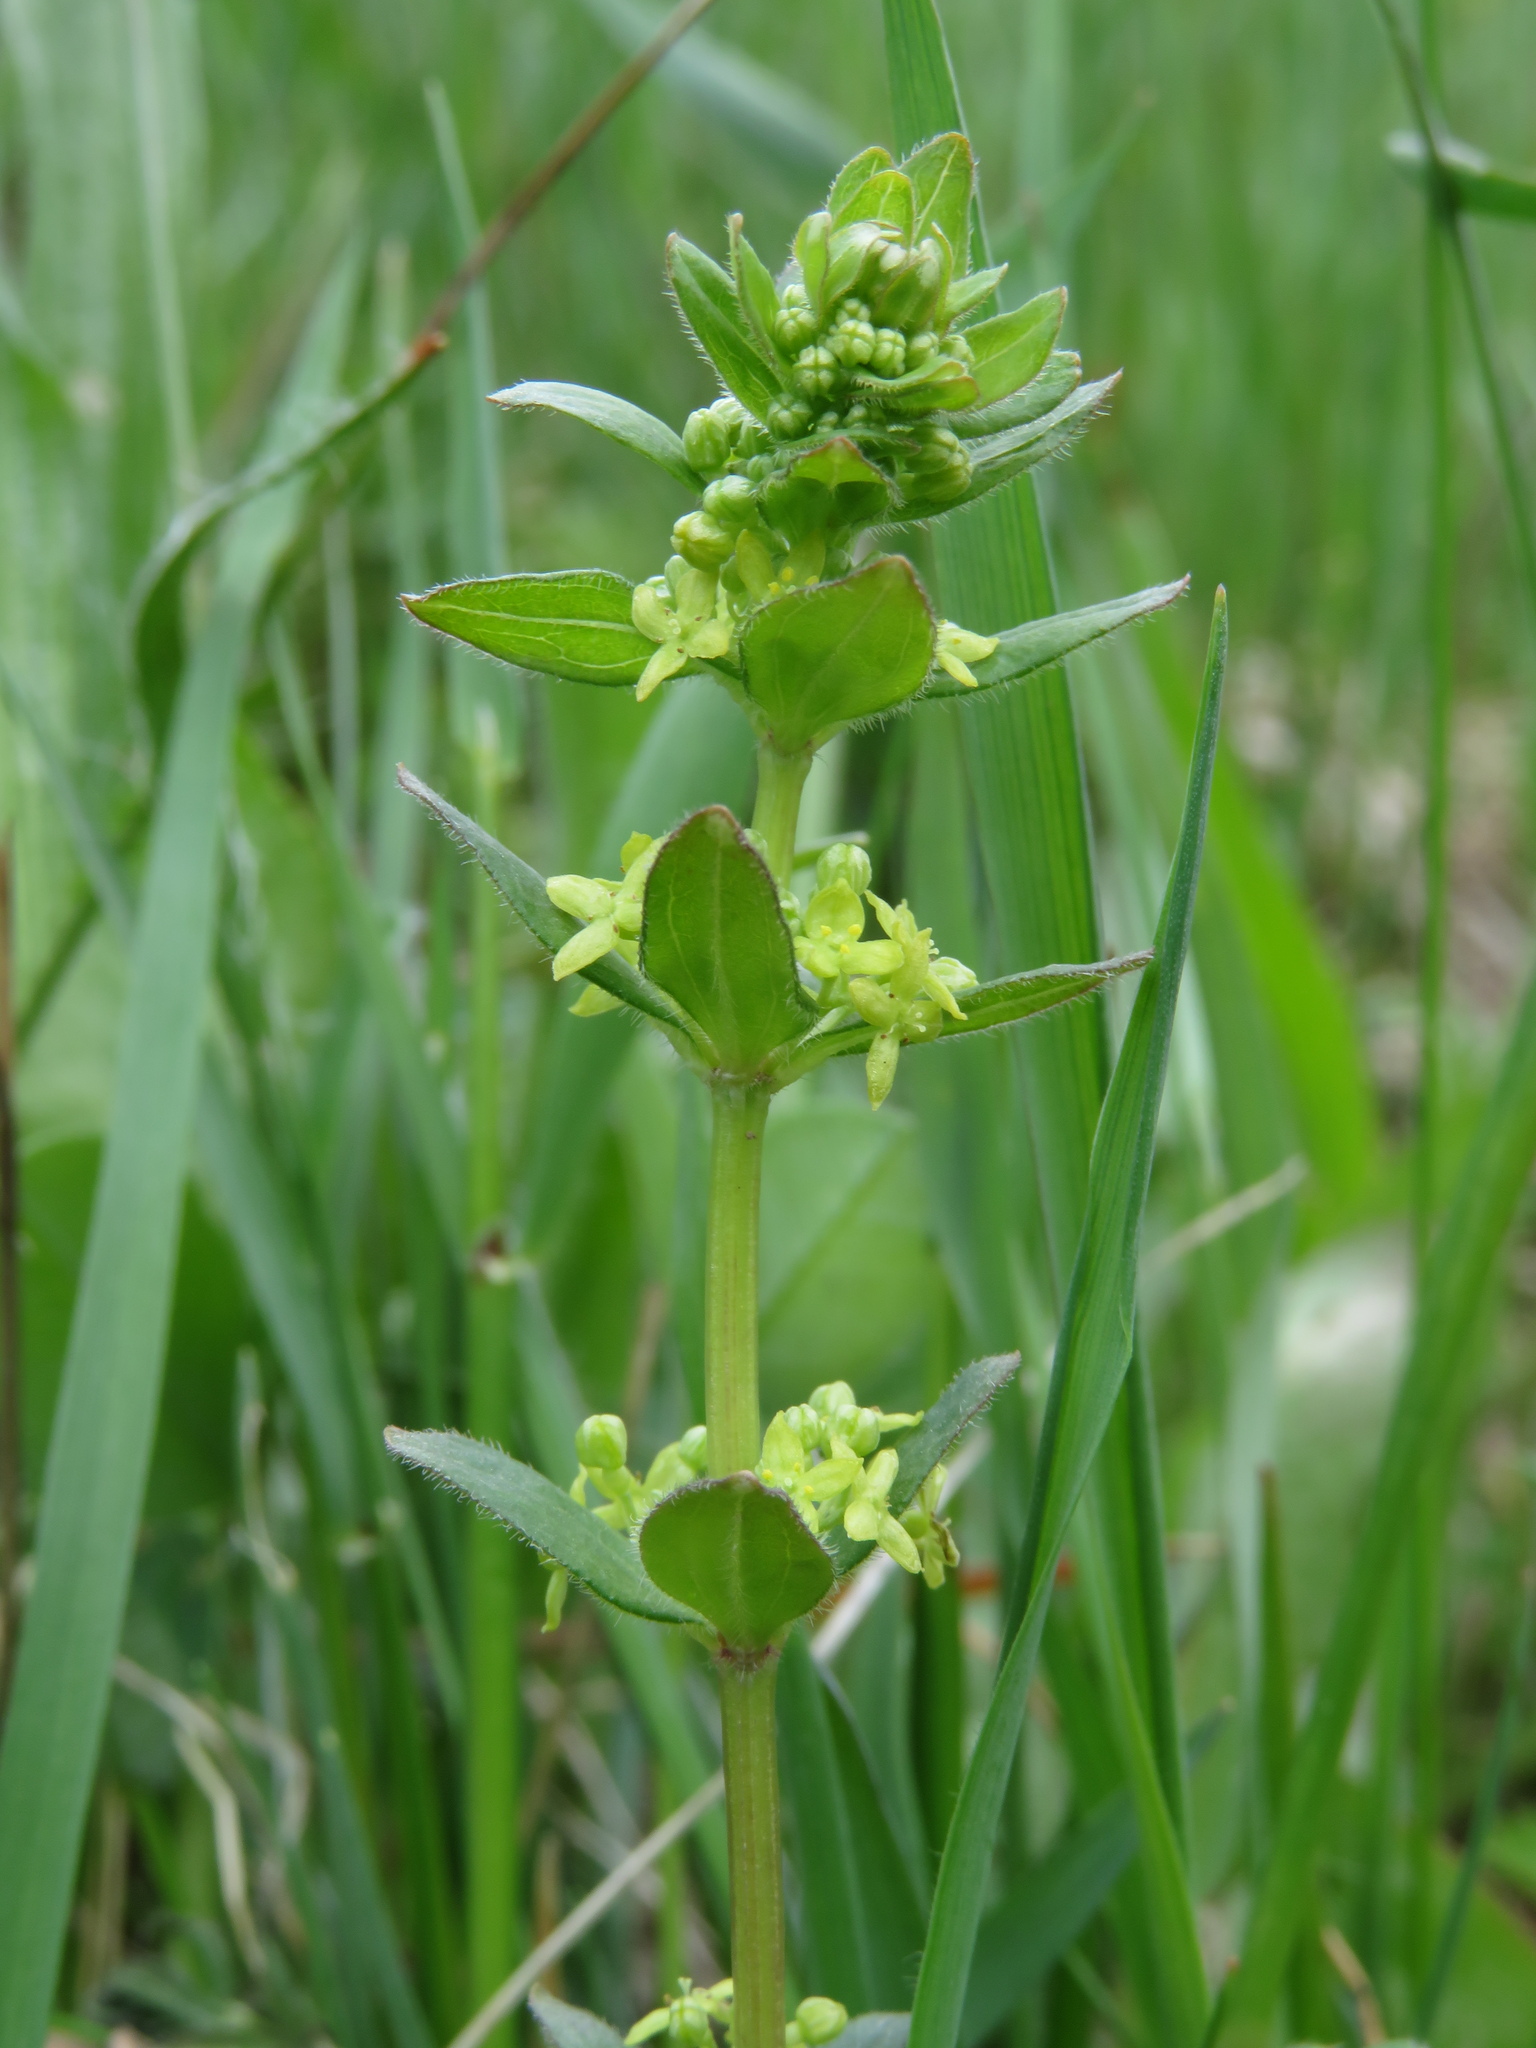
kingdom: Plantae
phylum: Tracheophyta
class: Magnoliopsida
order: Gentianales
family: Rubiaceae
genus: Cruciata
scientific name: Cruciata glabra
